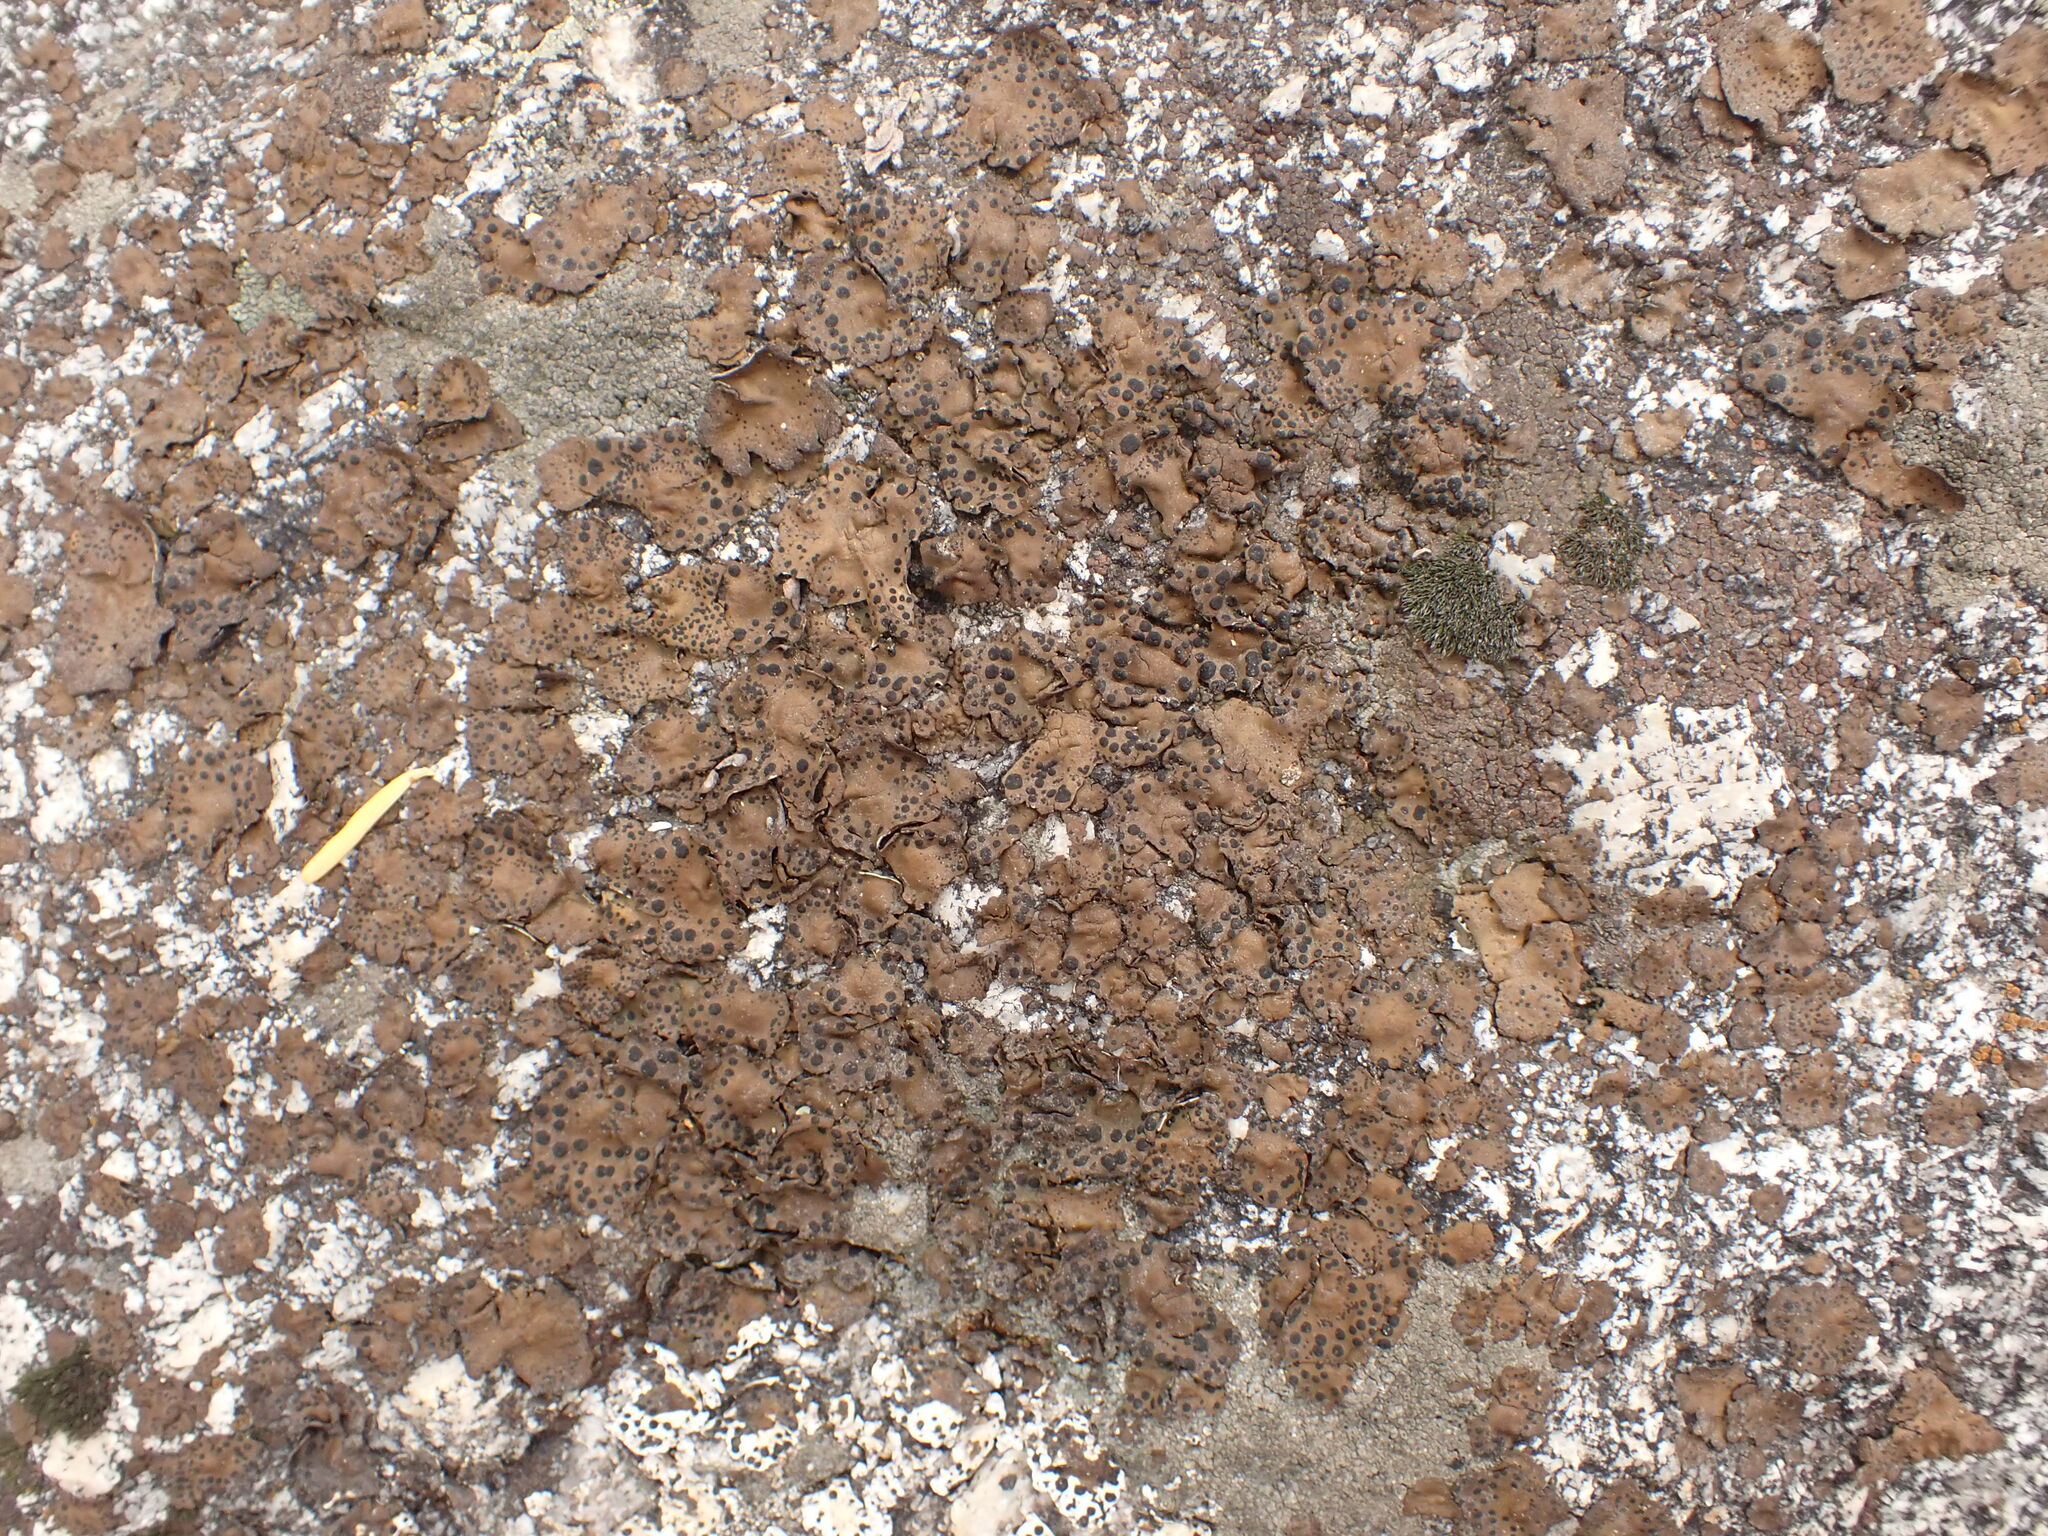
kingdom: Fungi
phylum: Ascomycota
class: Lecanoromycetes
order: Umbilicariales
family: Umbilicariaceae
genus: Umbilicaria
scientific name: Umbilicaria phaea
